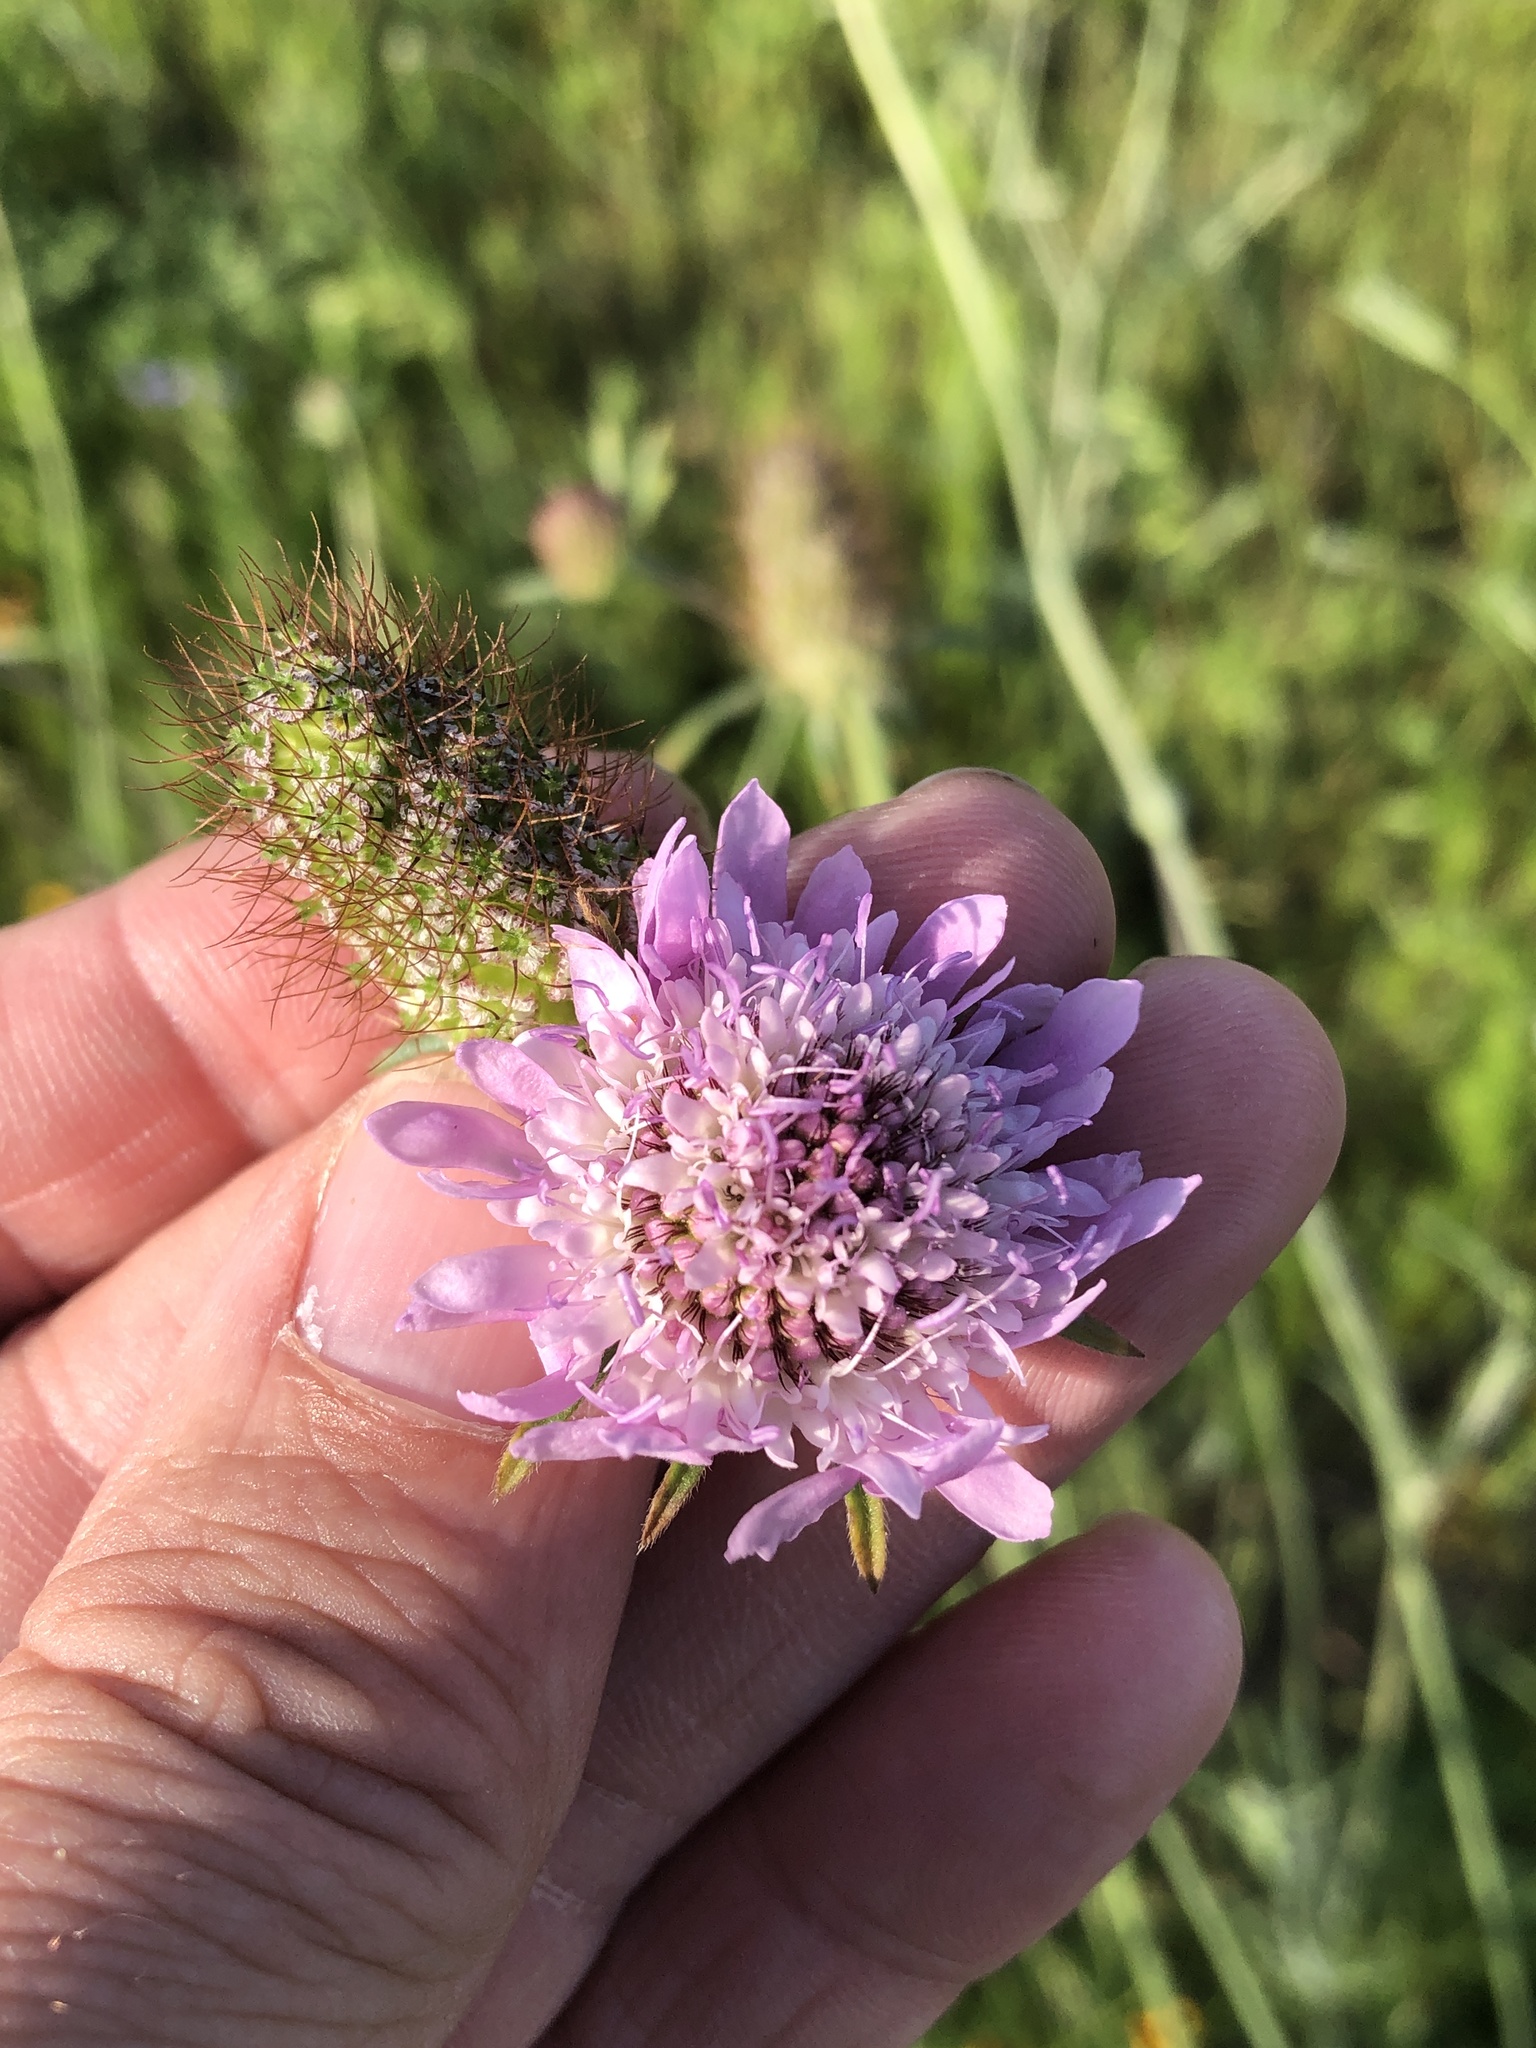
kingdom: Plantae
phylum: Tracheophyta
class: Magnoliopsida
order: Dipsacales
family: Caprifoliaceae
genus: Sixalix
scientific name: Sixalix atropurpurea
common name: Sweet scabious
